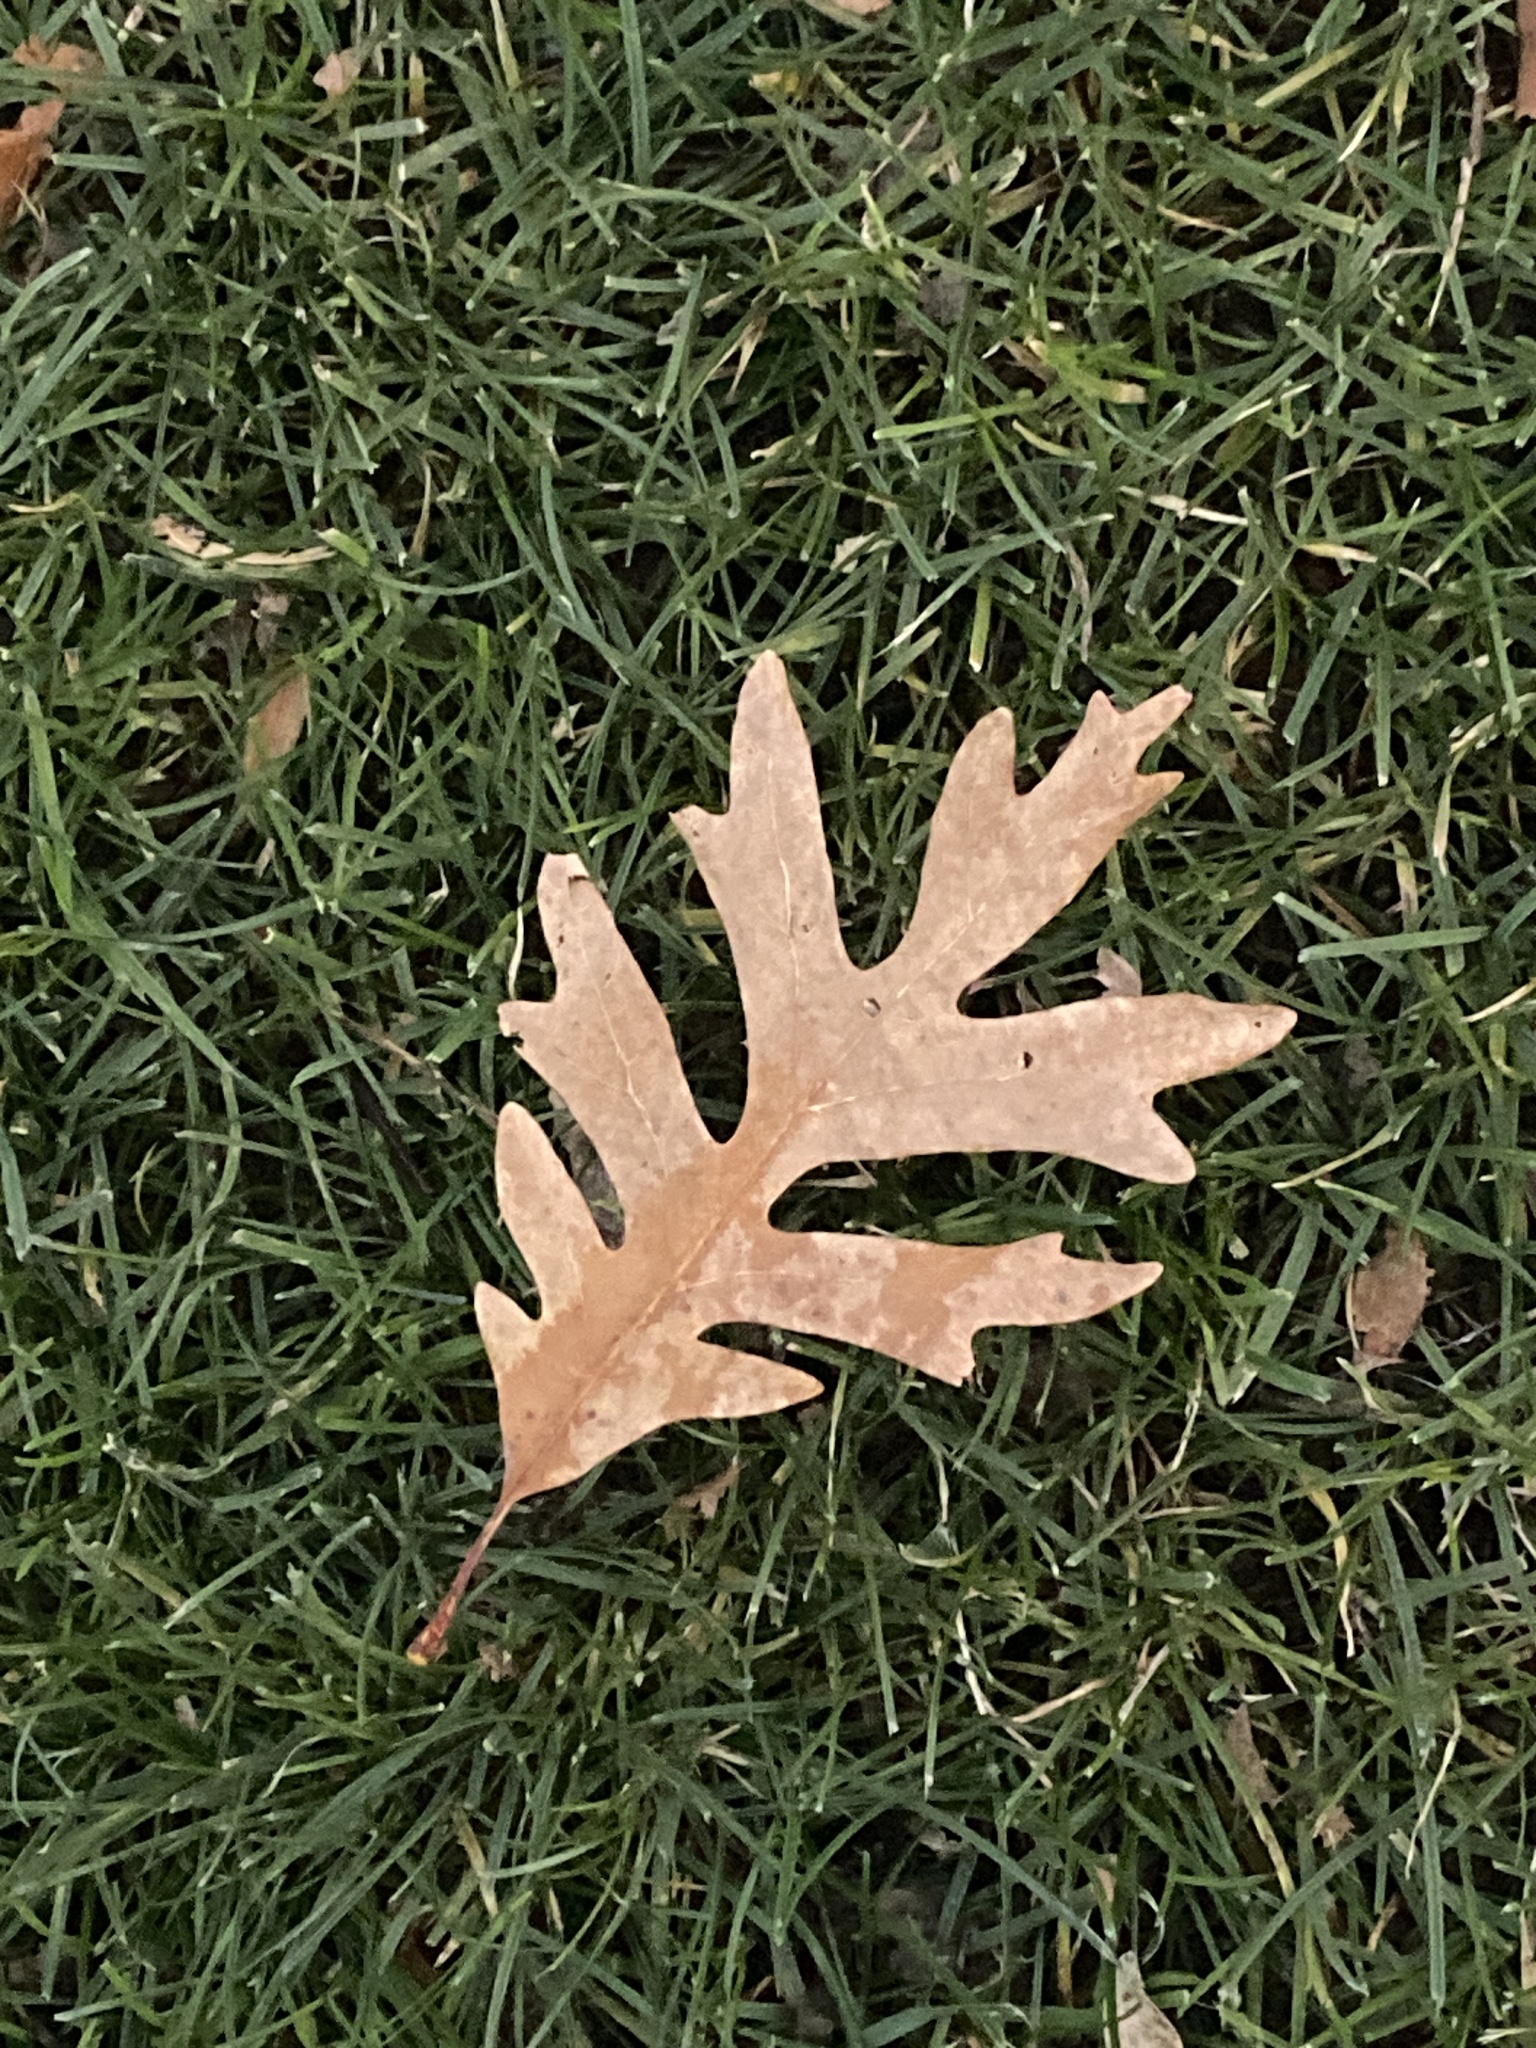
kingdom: Plantae
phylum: Tracheophyta
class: Magnoliopsida
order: Fagales
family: Fagaceae
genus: Quercus
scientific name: Quercus alba
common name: White oak
